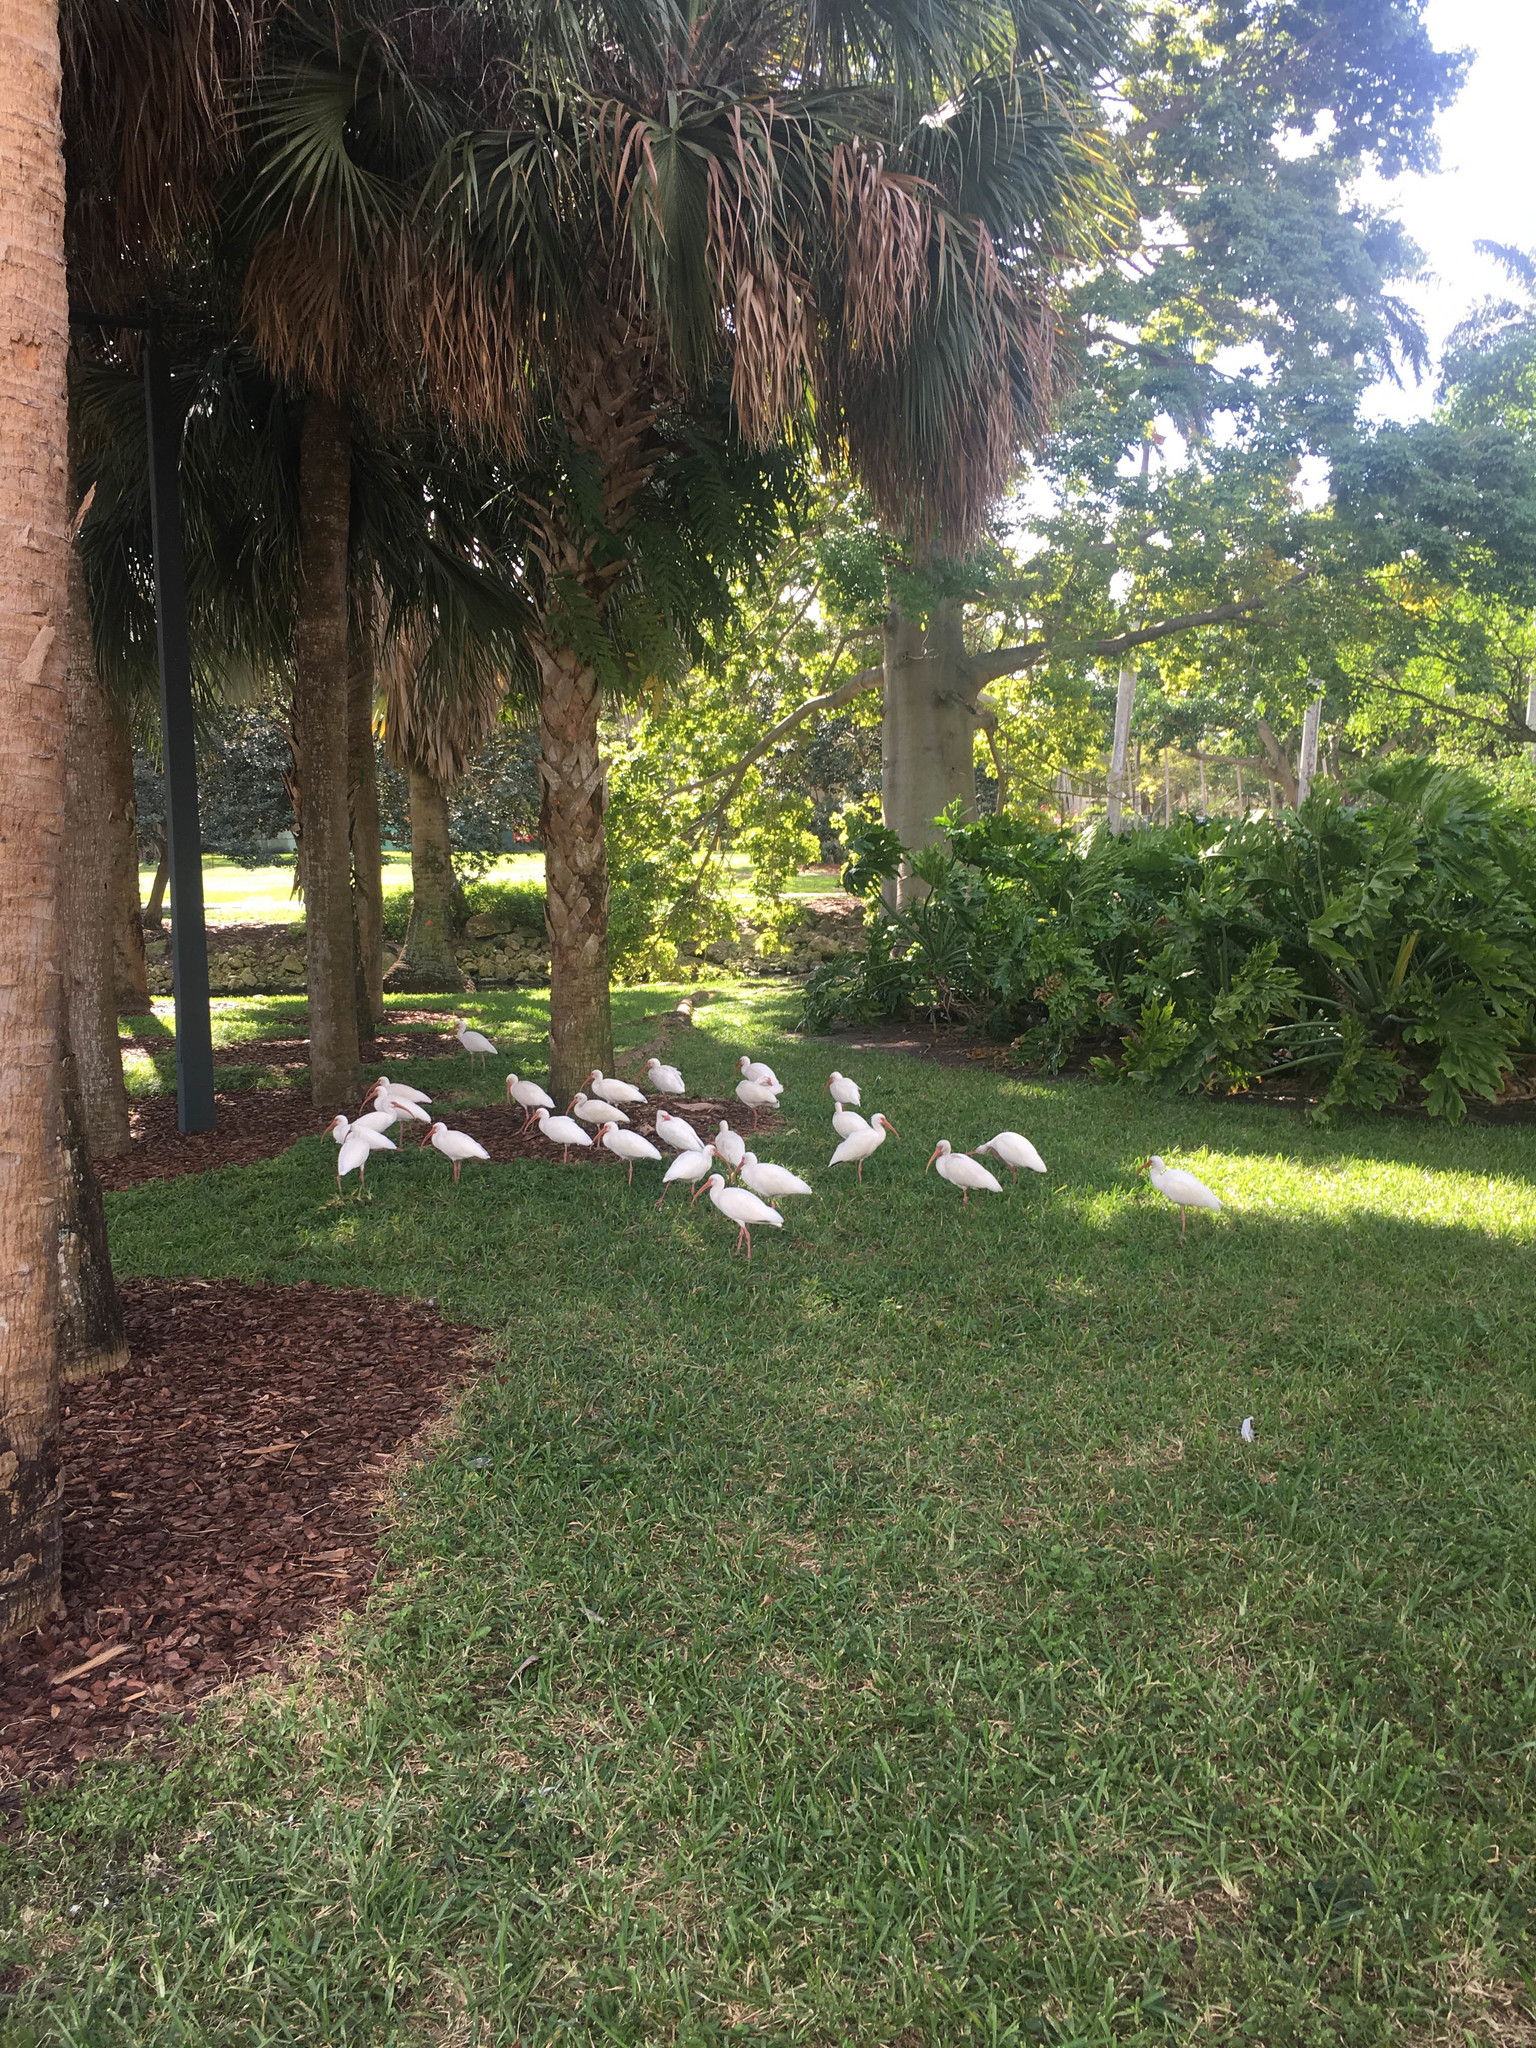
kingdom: Animalia
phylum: Chordata
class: Aves
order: Pelecaniformes
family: Threskiornithidae
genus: Eudocimus
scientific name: Eudocimus albus
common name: White ibis
